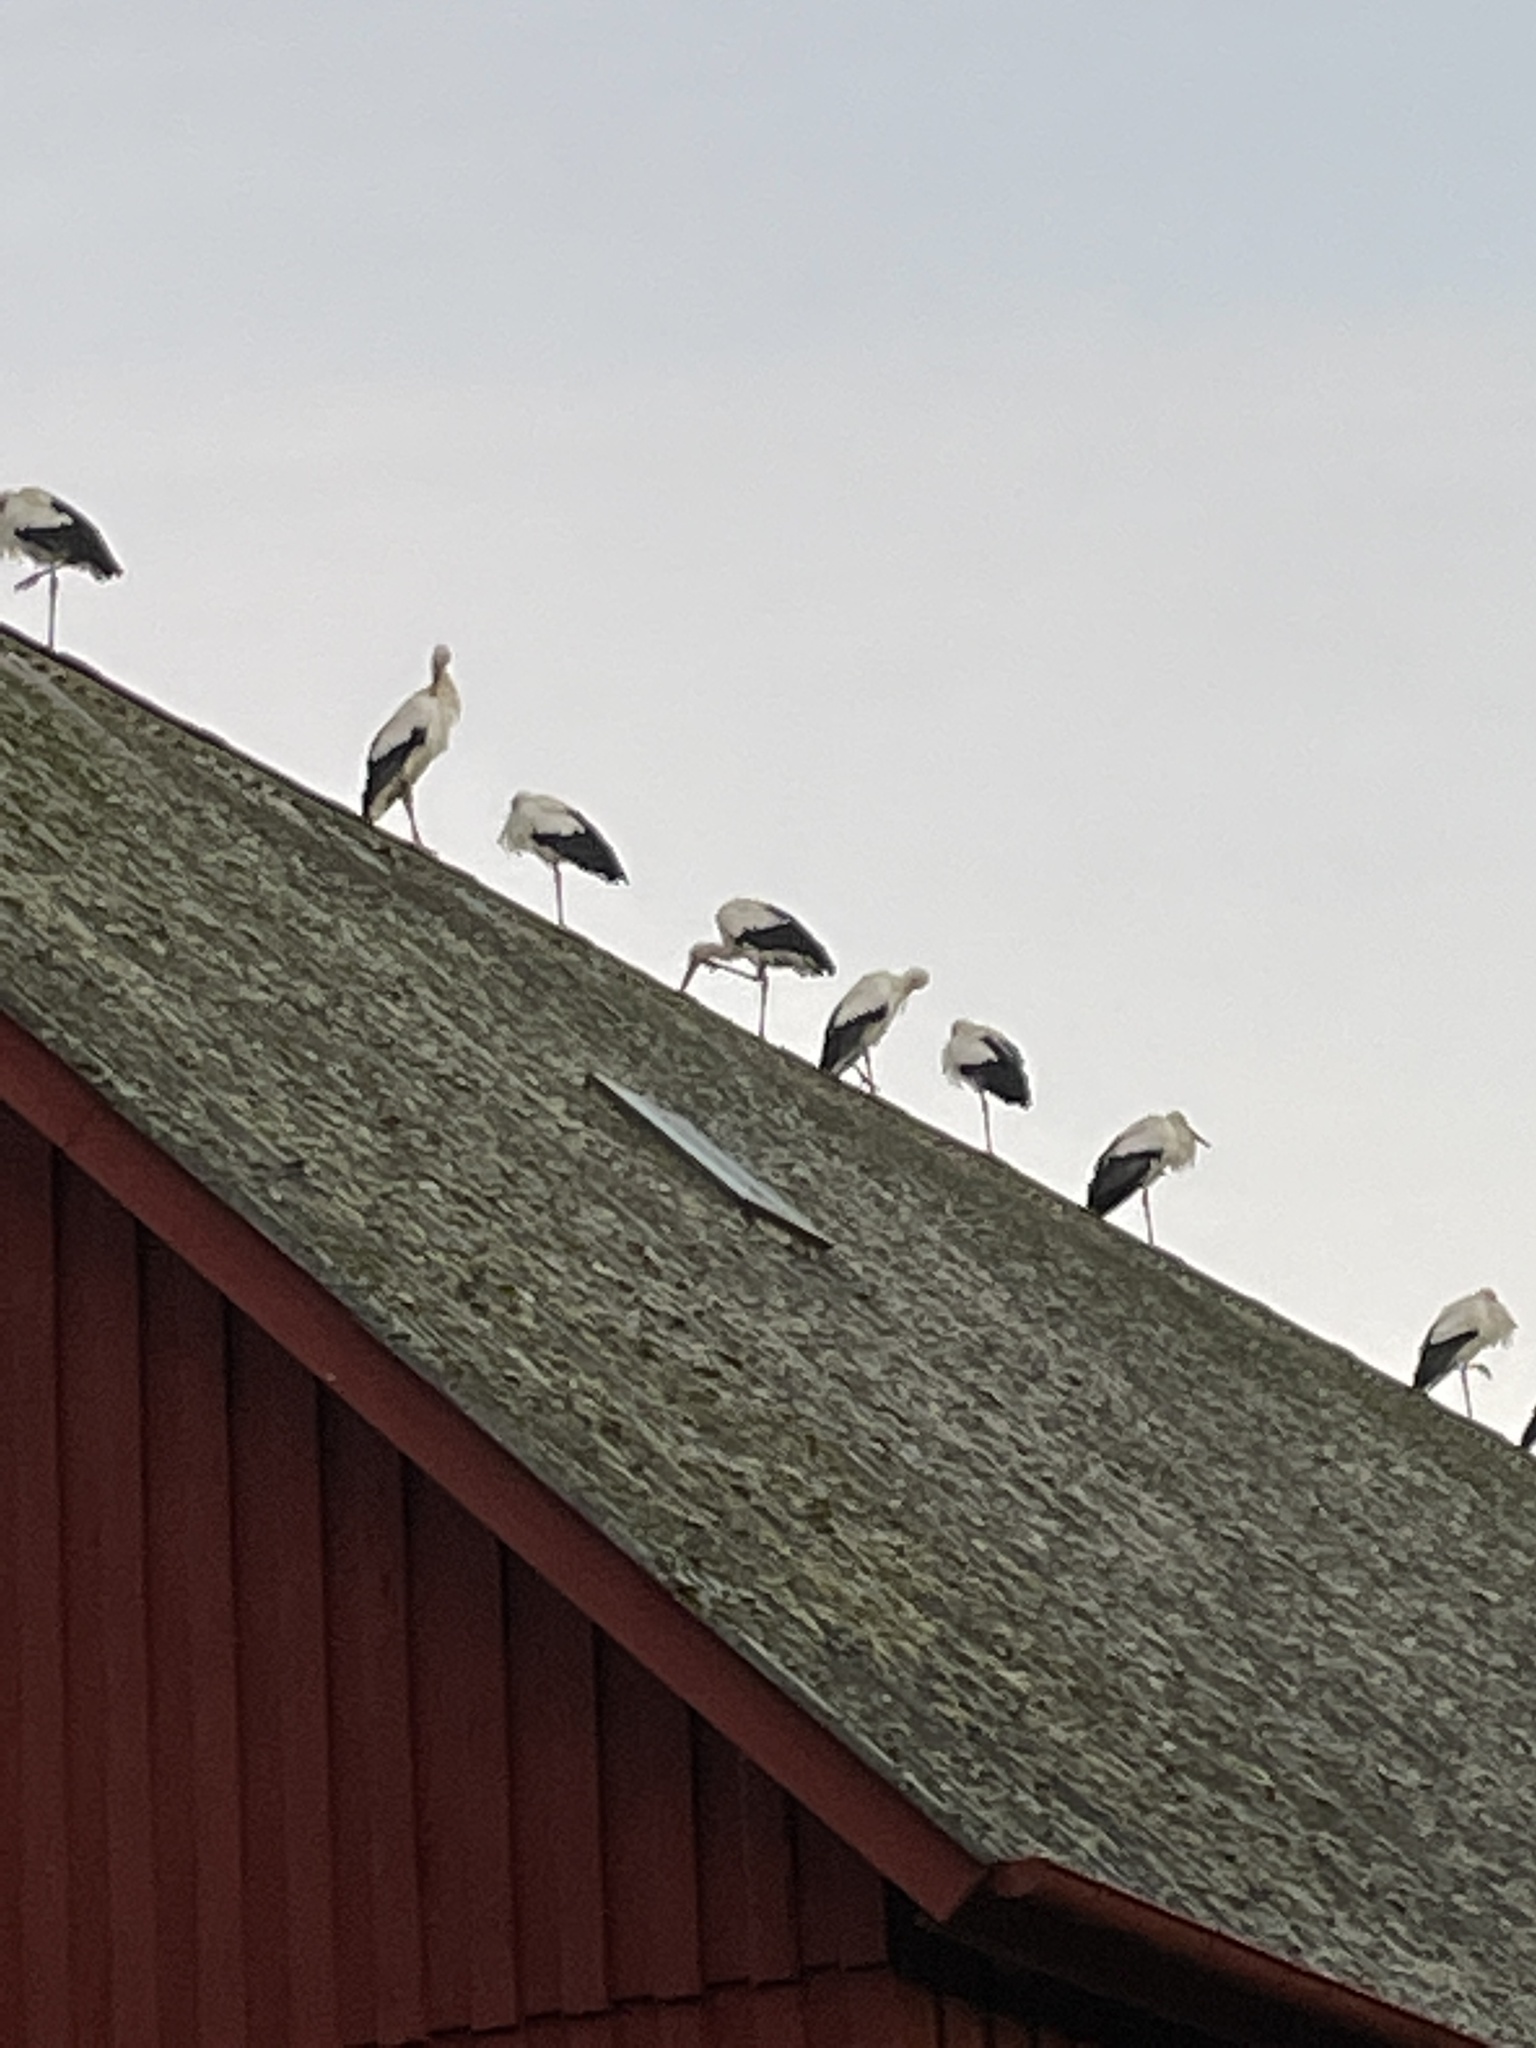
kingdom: Animalia
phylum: Chordata
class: Aves
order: Ciconiiformes
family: Ciconiidae
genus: Ciconia
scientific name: Ciconia ciconia
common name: White stork
